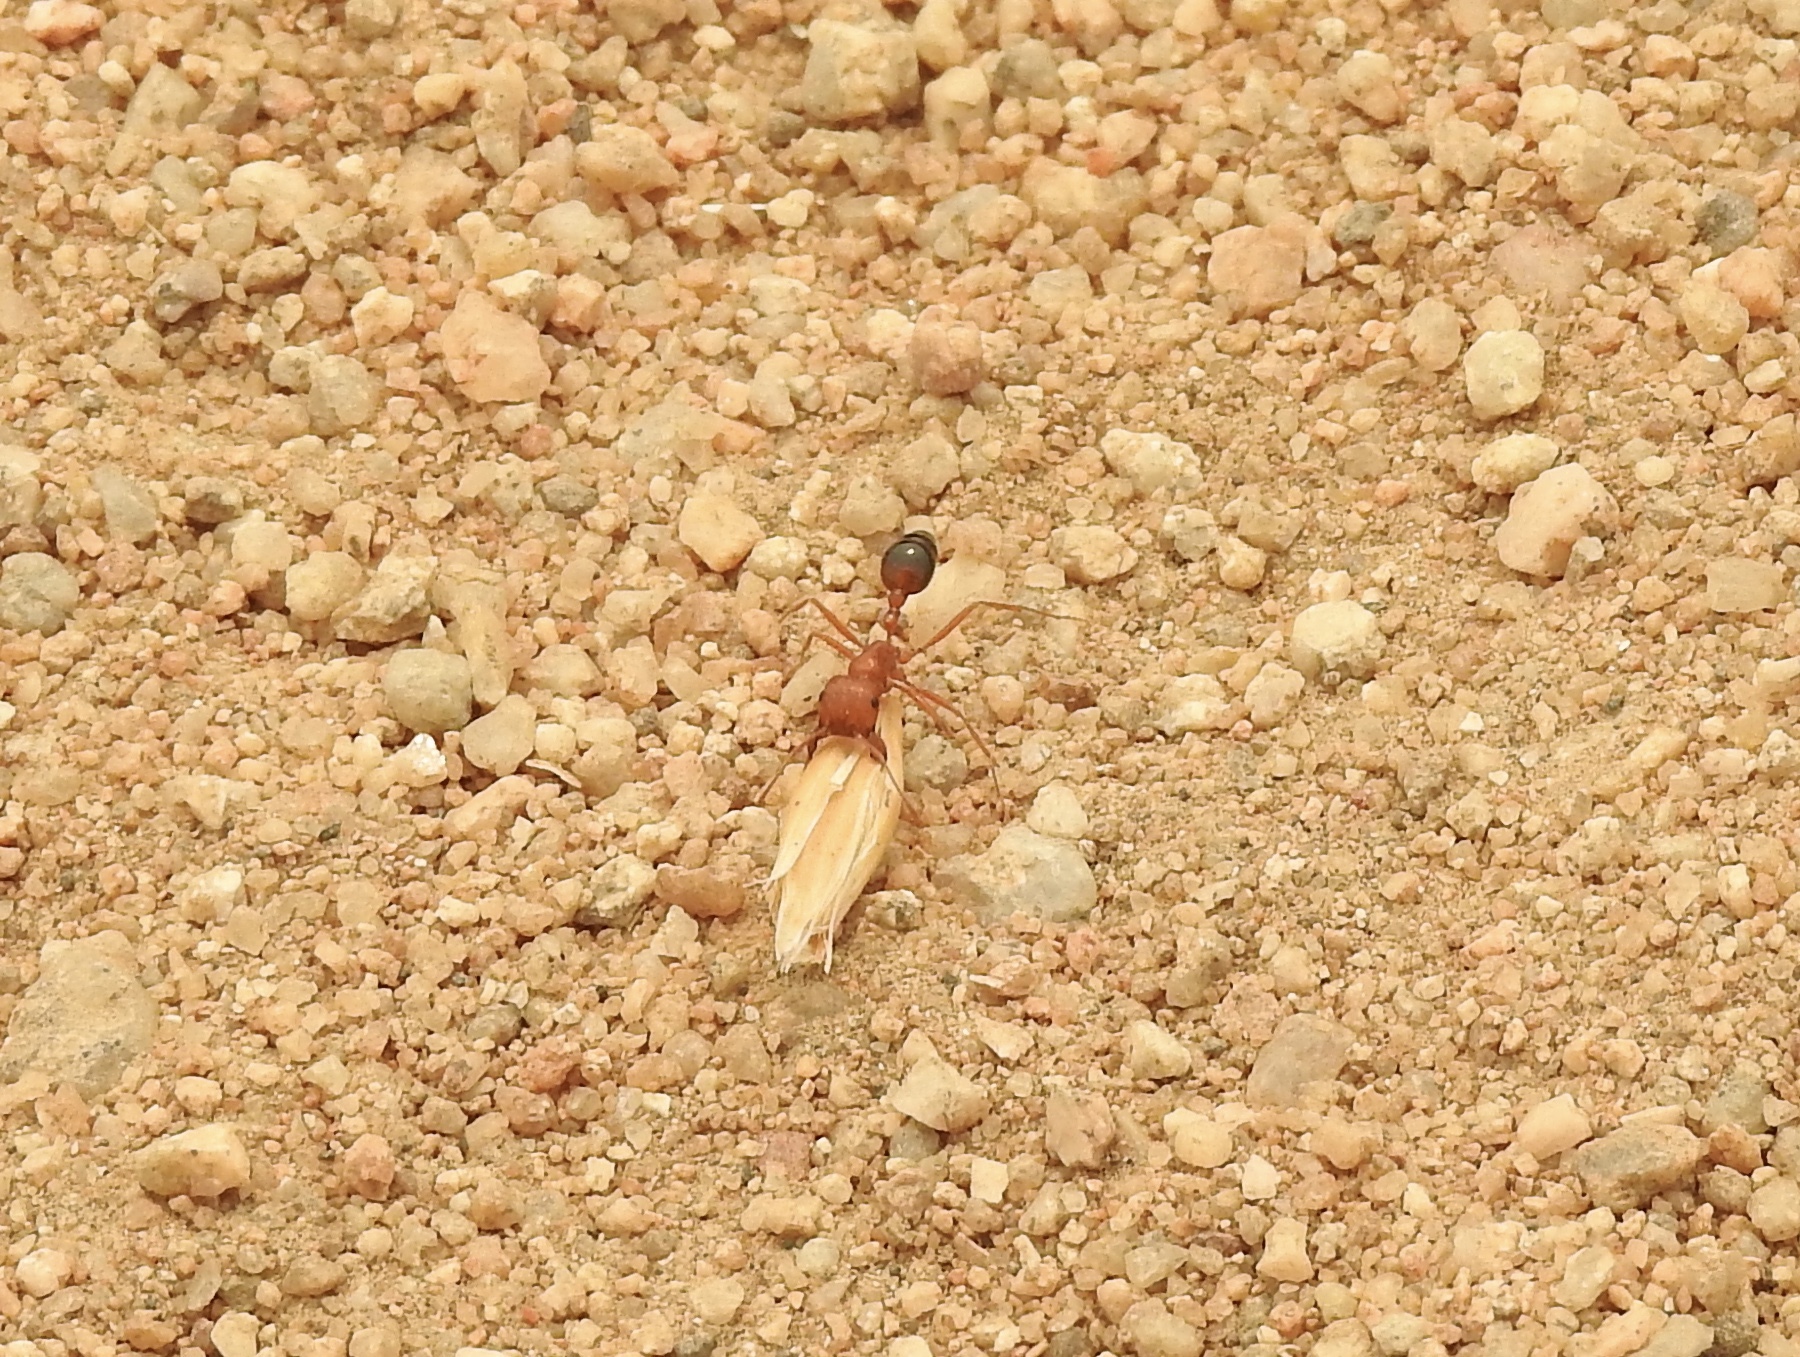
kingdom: Animalia
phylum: Arthropoda
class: Insecta
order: Hymenoptera
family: Formicidae
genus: Pogonomyrmex
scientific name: Pogonomyrmex californicus
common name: California harvester ant
